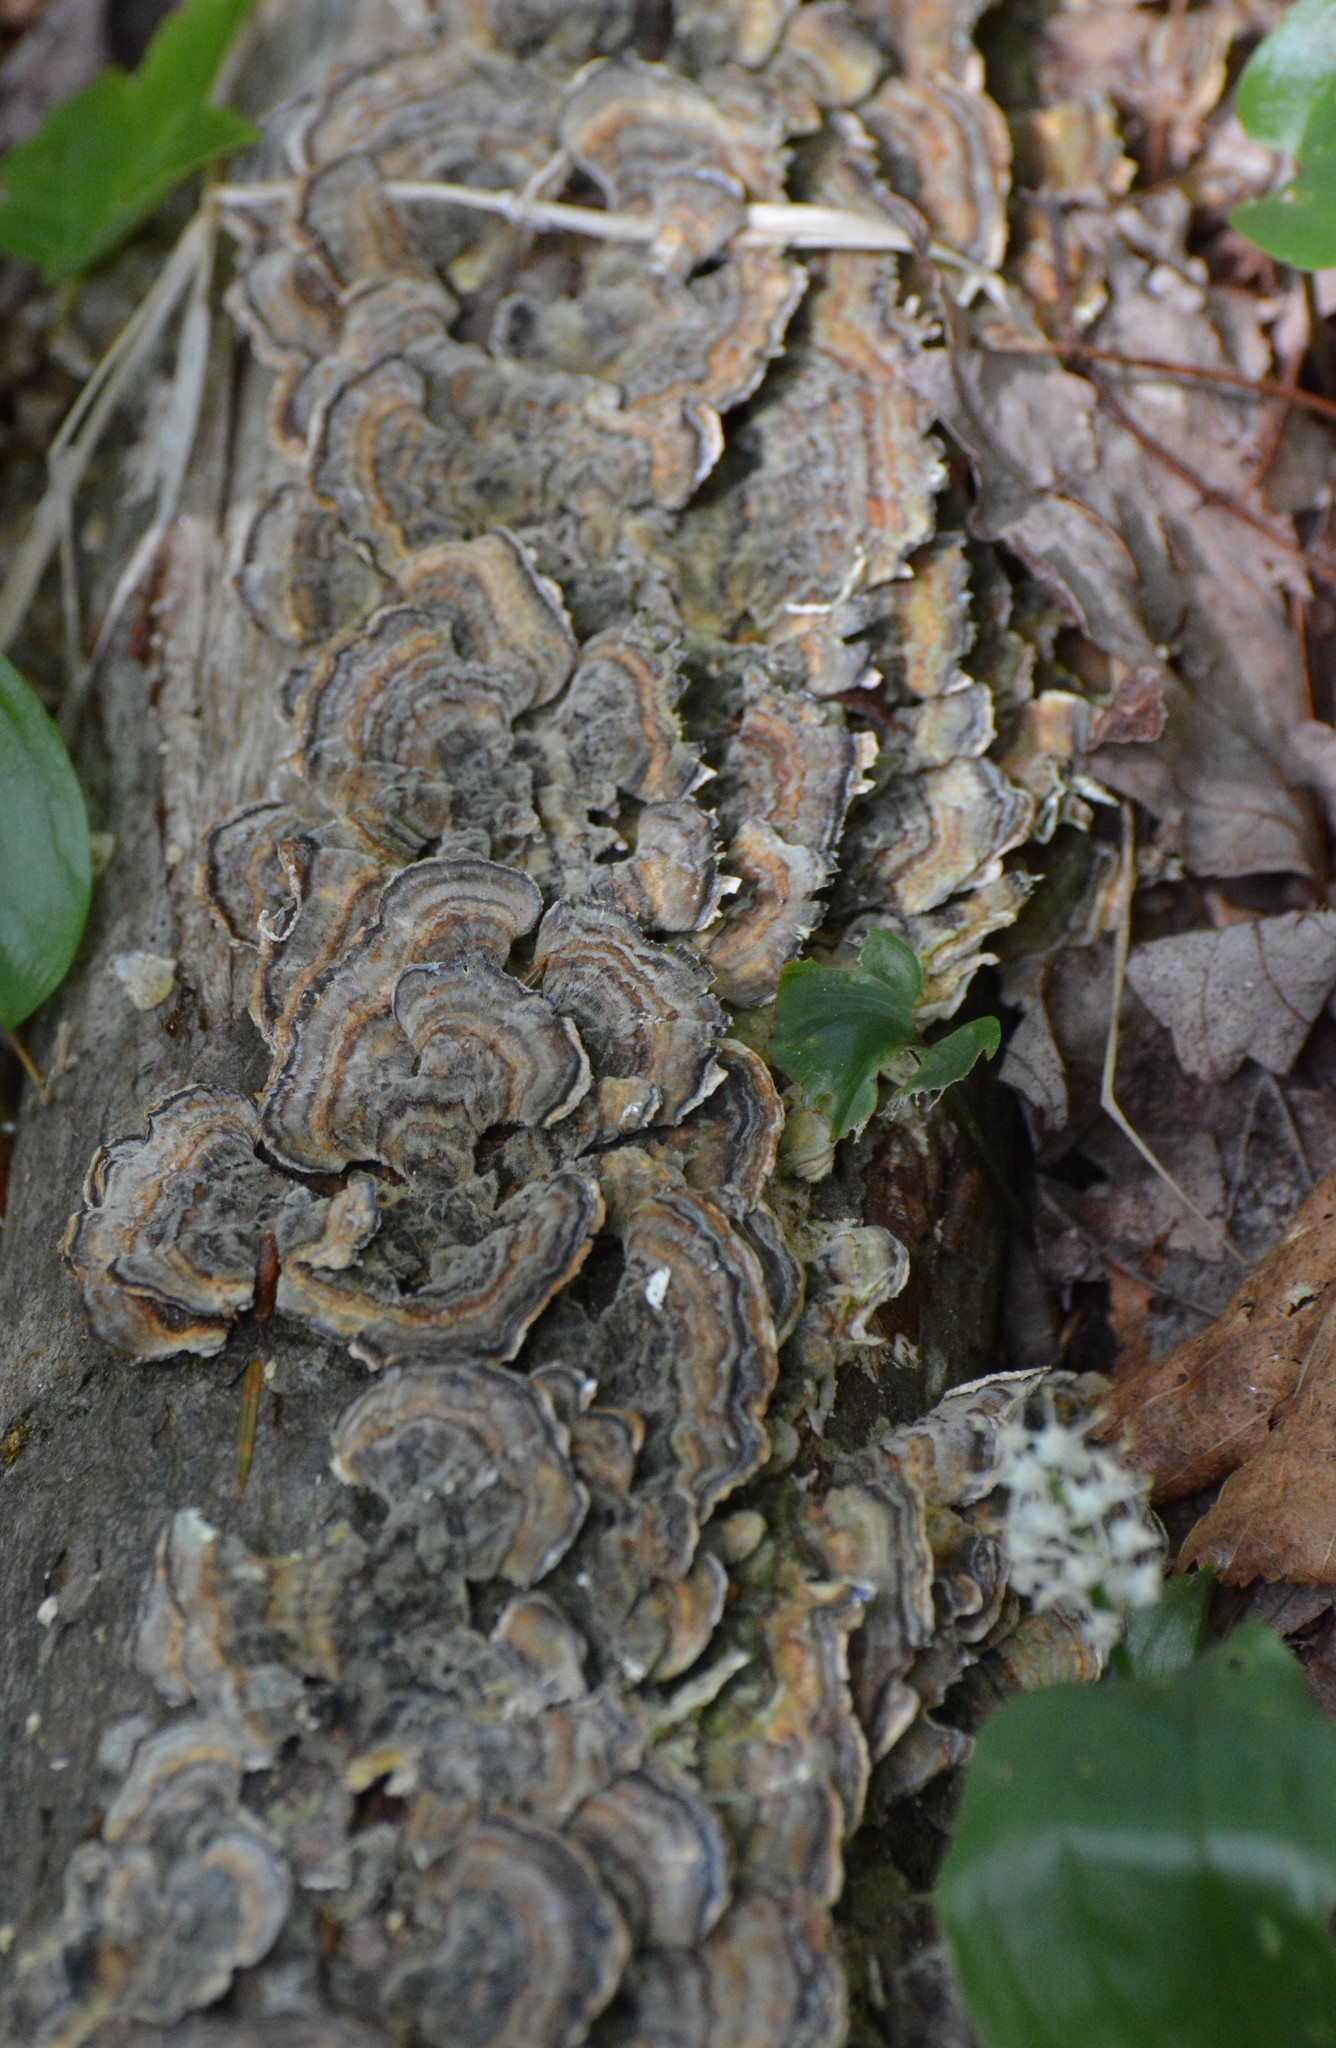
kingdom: Fungi
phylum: Basidiomycota
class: Agaricomycetes
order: Polyporales
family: Polyporaceae
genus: Trametes
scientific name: Trametes versicolor
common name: Turkeytail
